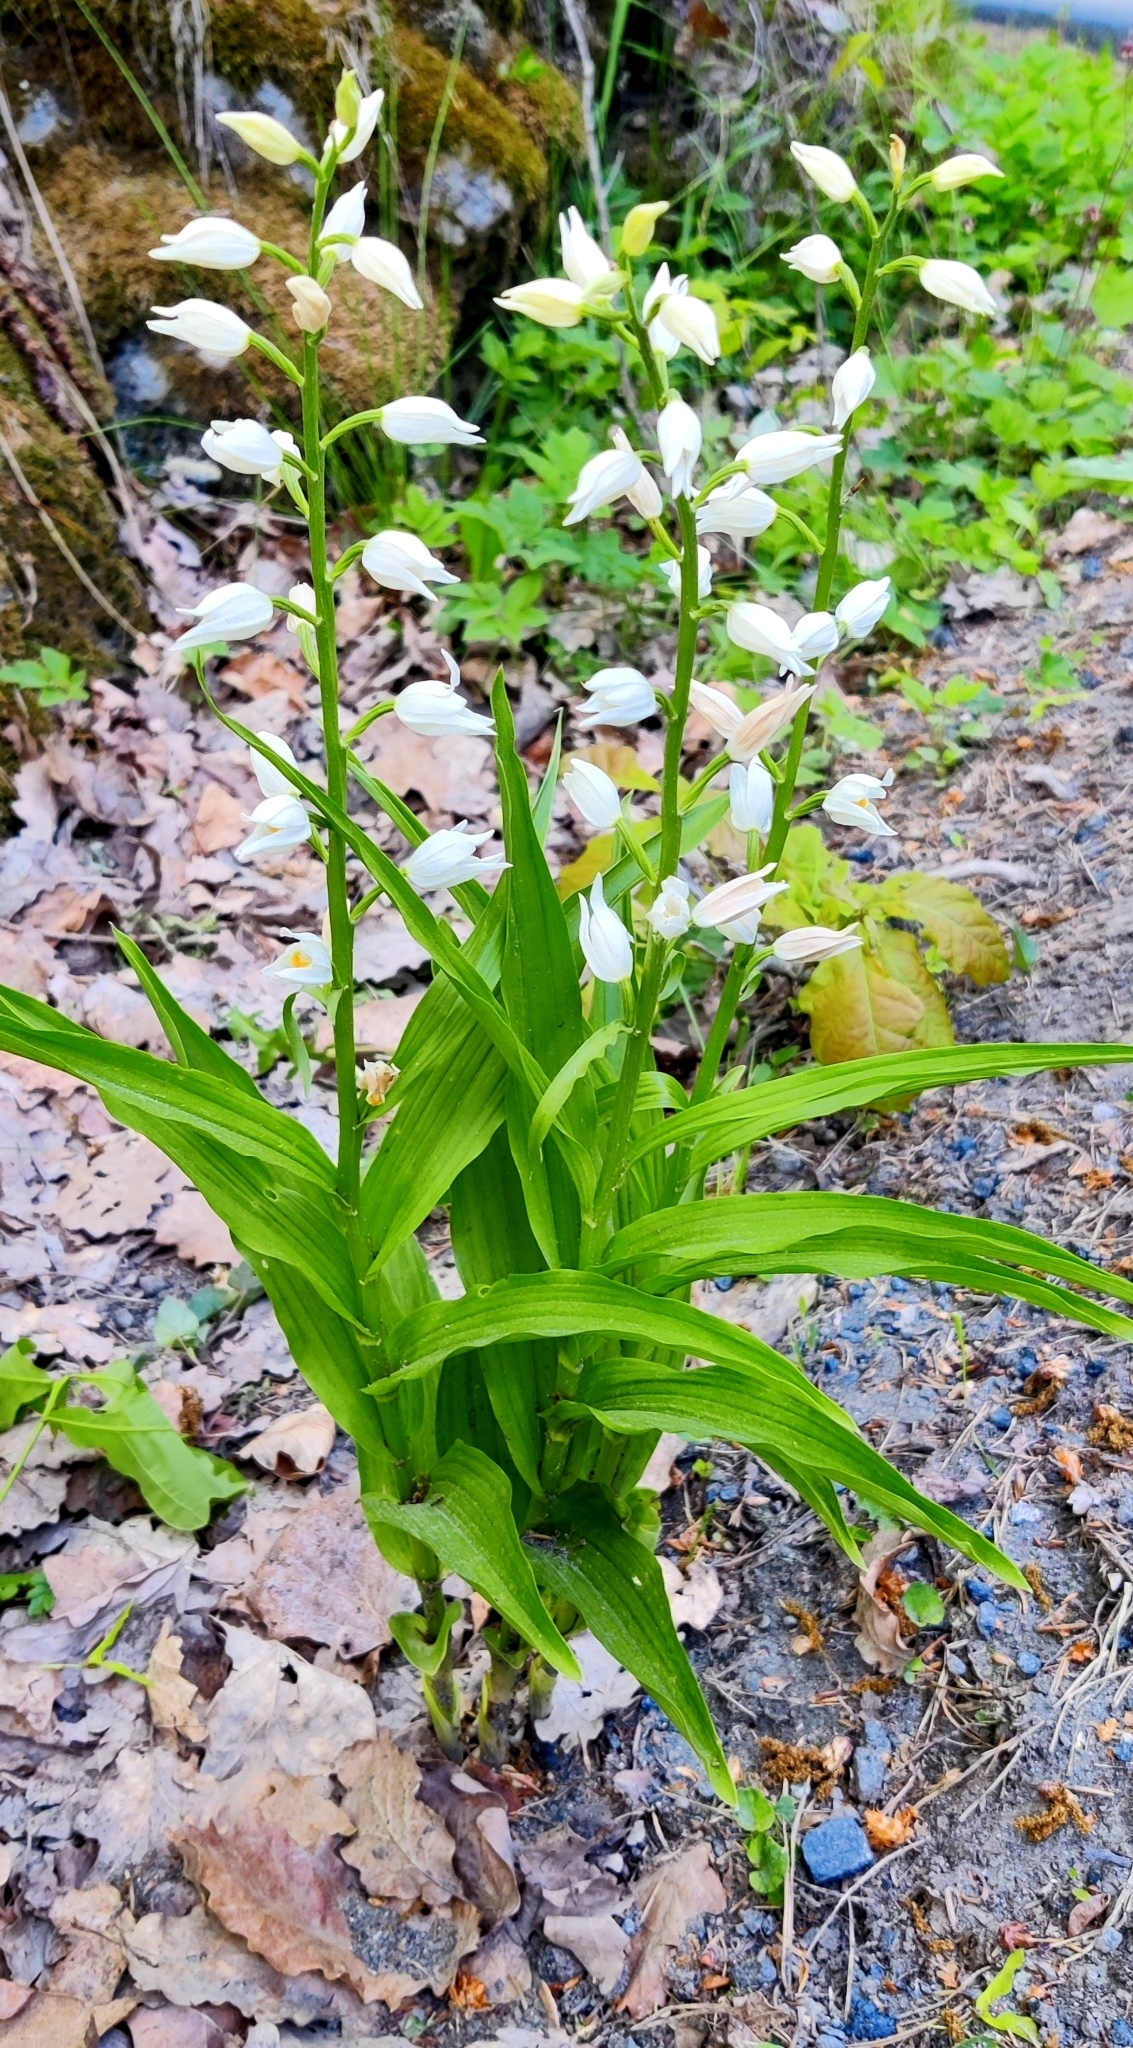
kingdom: Plantae
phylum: Tracheophyta
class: Liliopsida
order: Asparagales
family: Orchidaceae
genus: Cephalanthera
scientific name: Cephalanthera longifolia
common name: Narrow-leaved helleborine
